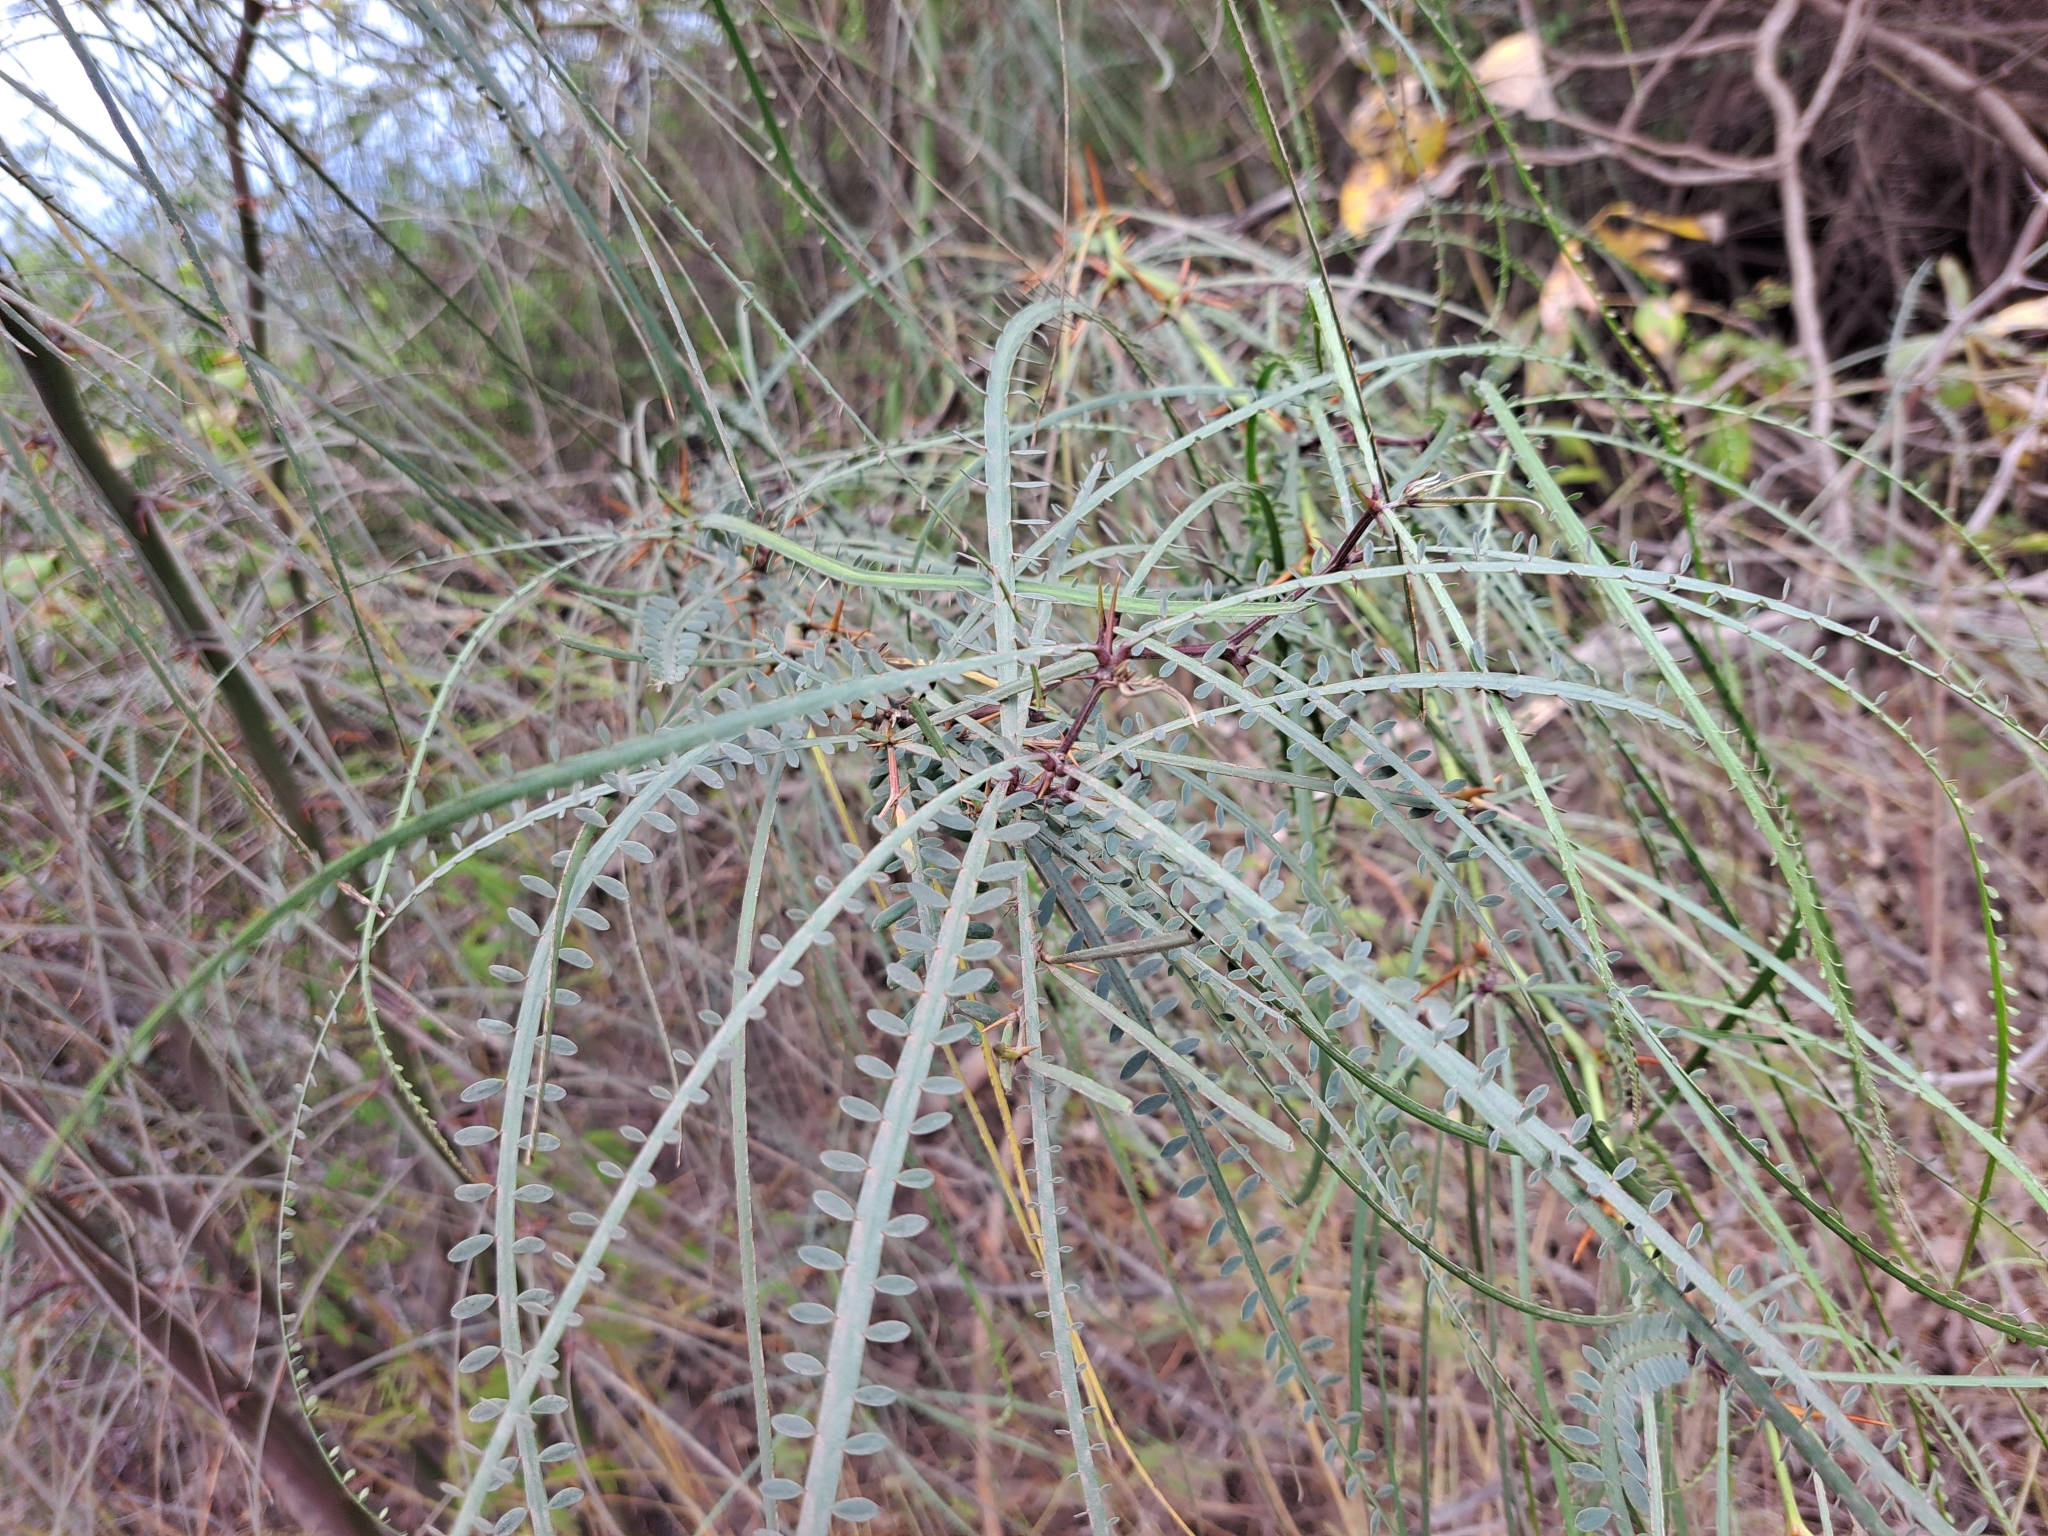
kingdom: Plantae
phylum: Tracheophyta
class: Magnoliopsida
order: Fabales
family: Fabaceae
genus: Parkinsonia
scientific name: Parkinsonia aculeata
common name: Jerusalem thorn
